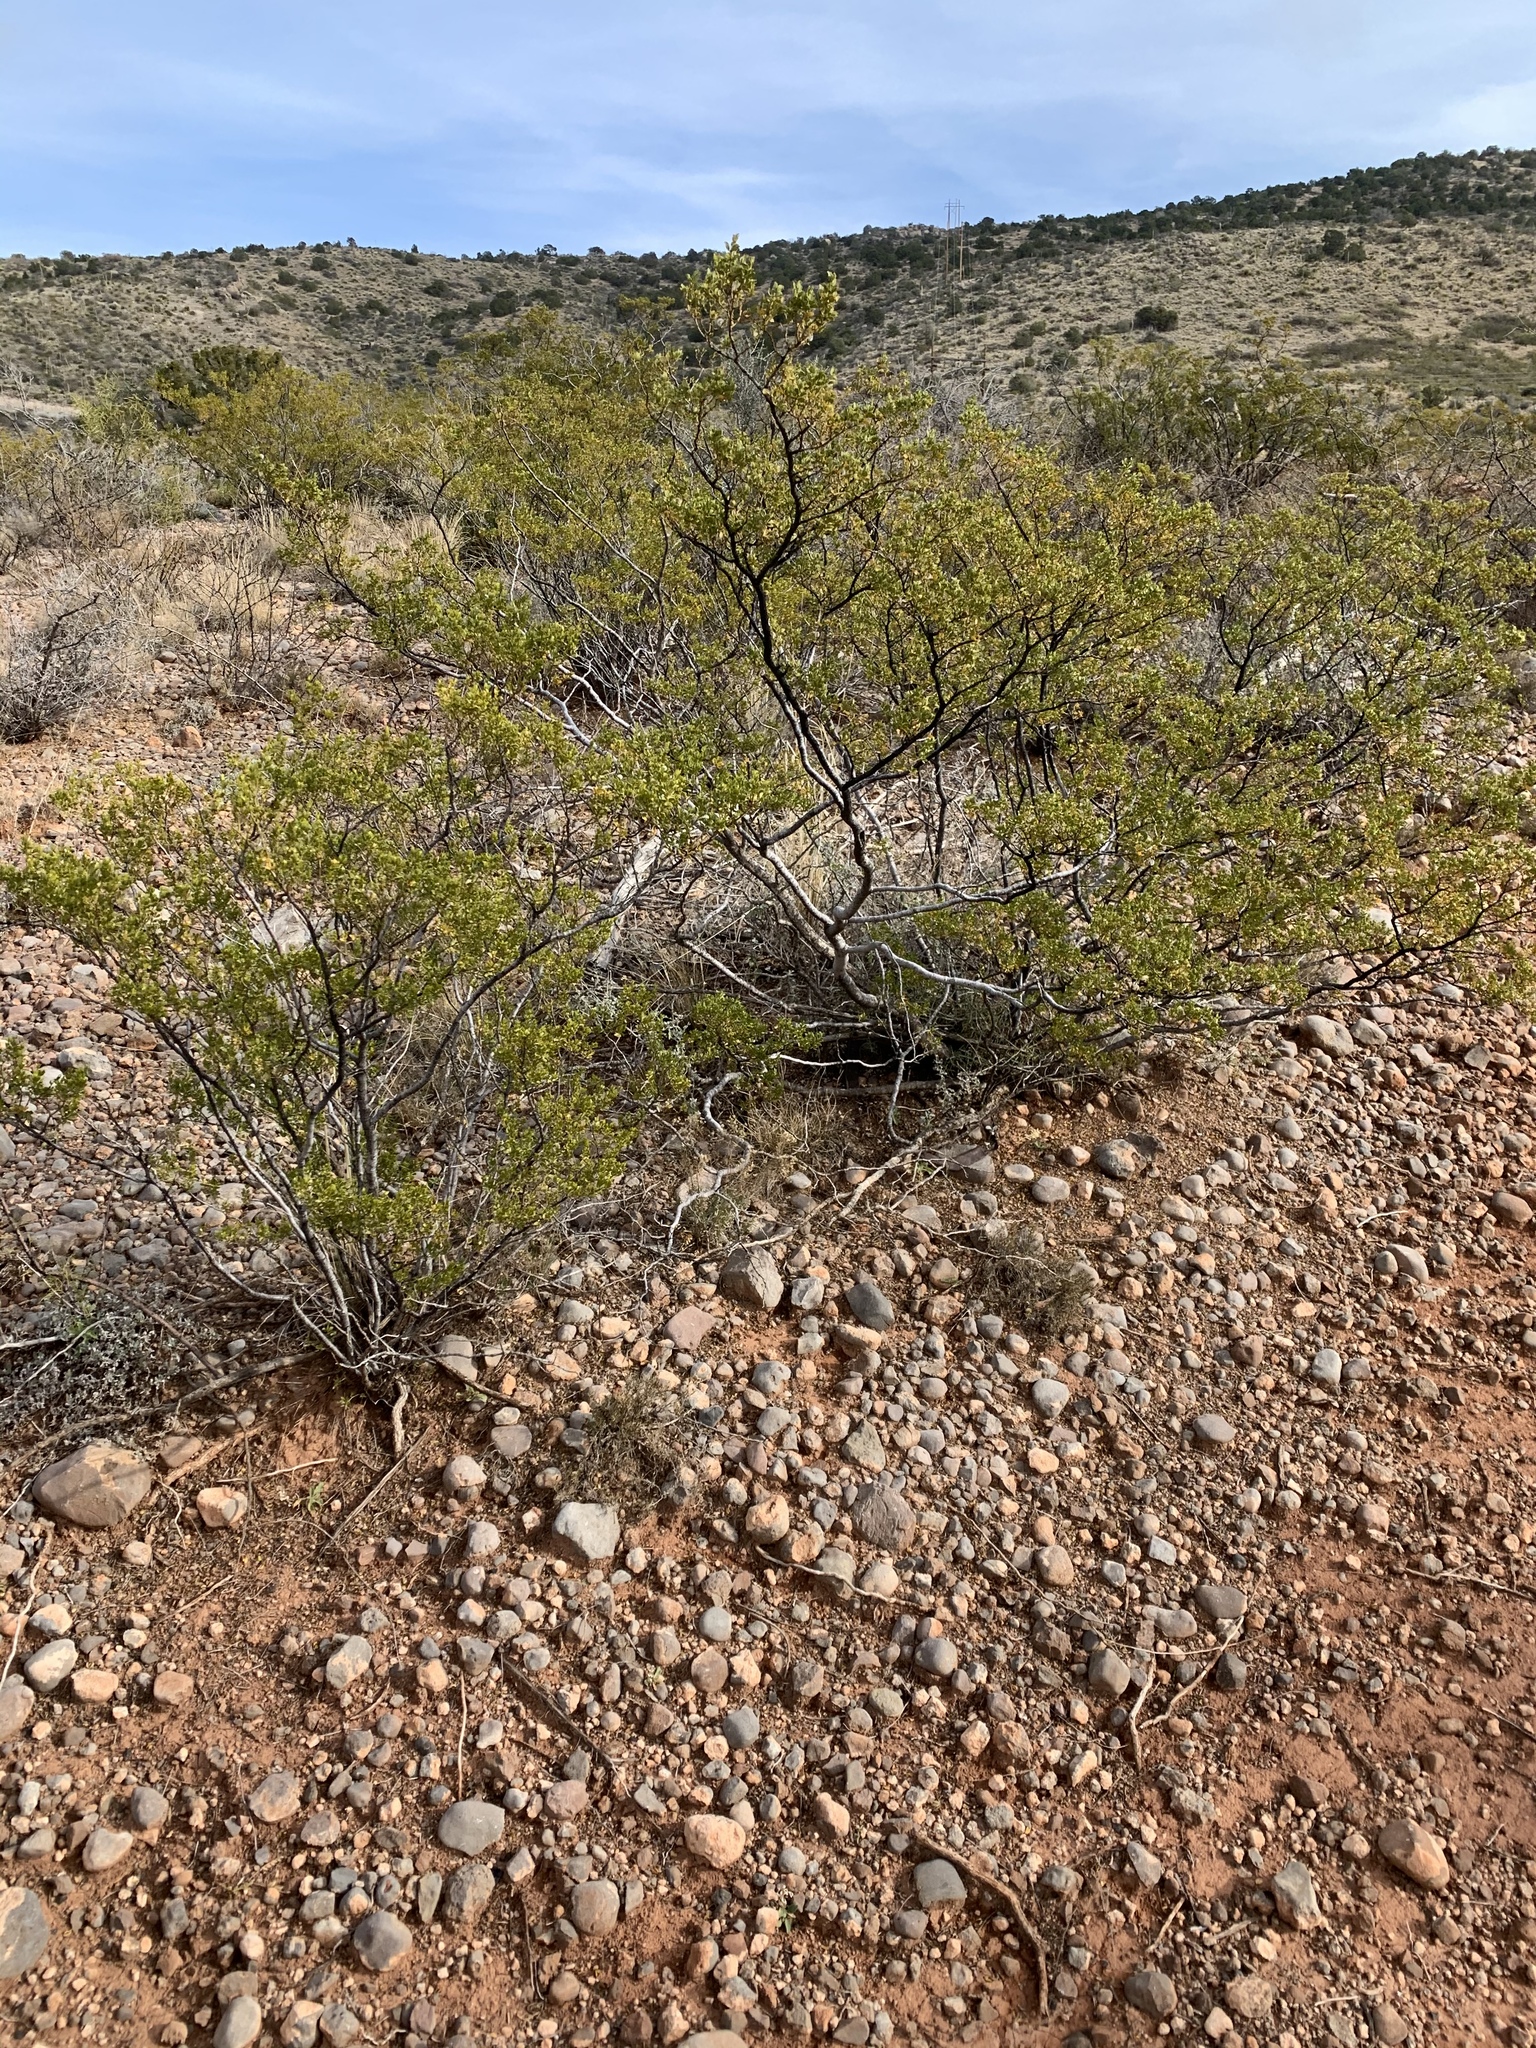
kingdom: Plantae
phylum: Tracheophyta
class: Magnoliopsida
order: Zygophyllales
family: Zygophyllaceae
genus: Larrea
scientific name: Larrea tridentata
